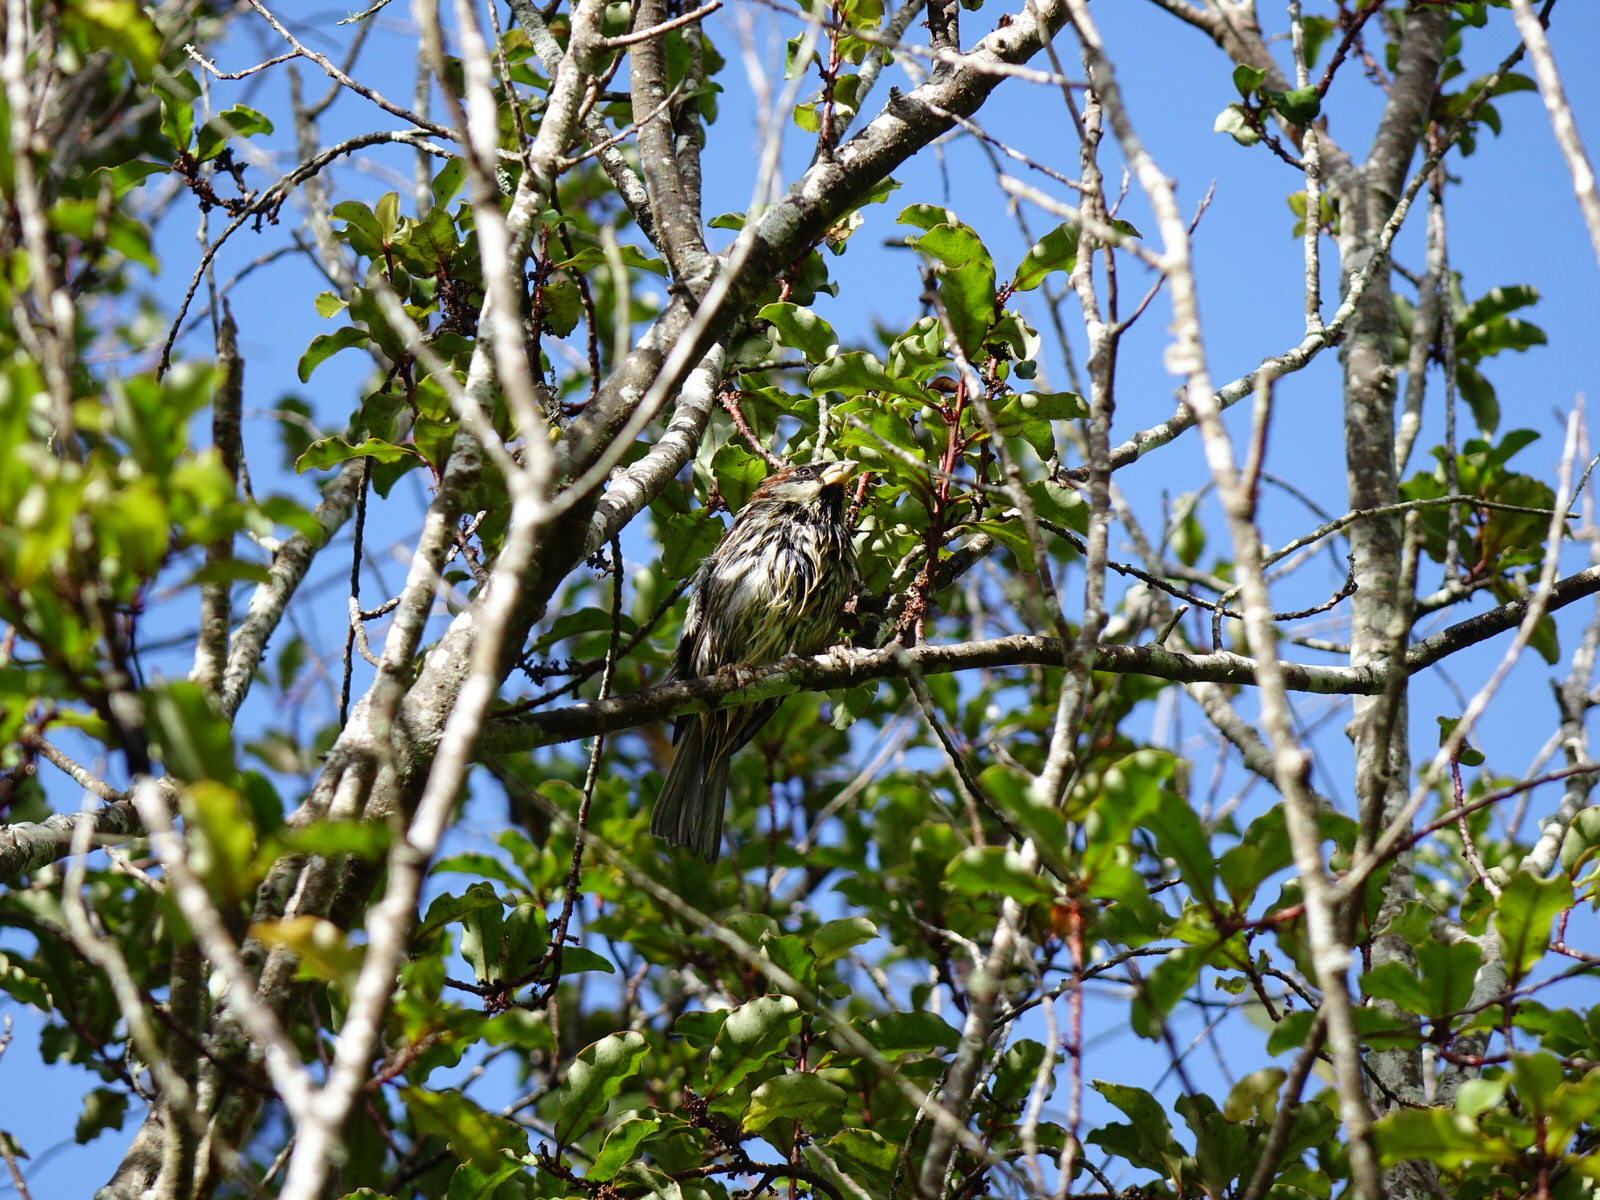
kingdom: Animalia
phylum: Chordata
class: Aves
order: Passeriformes
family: Passeridae
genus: Passer
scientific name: Passer domesticus
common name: House sparrow
